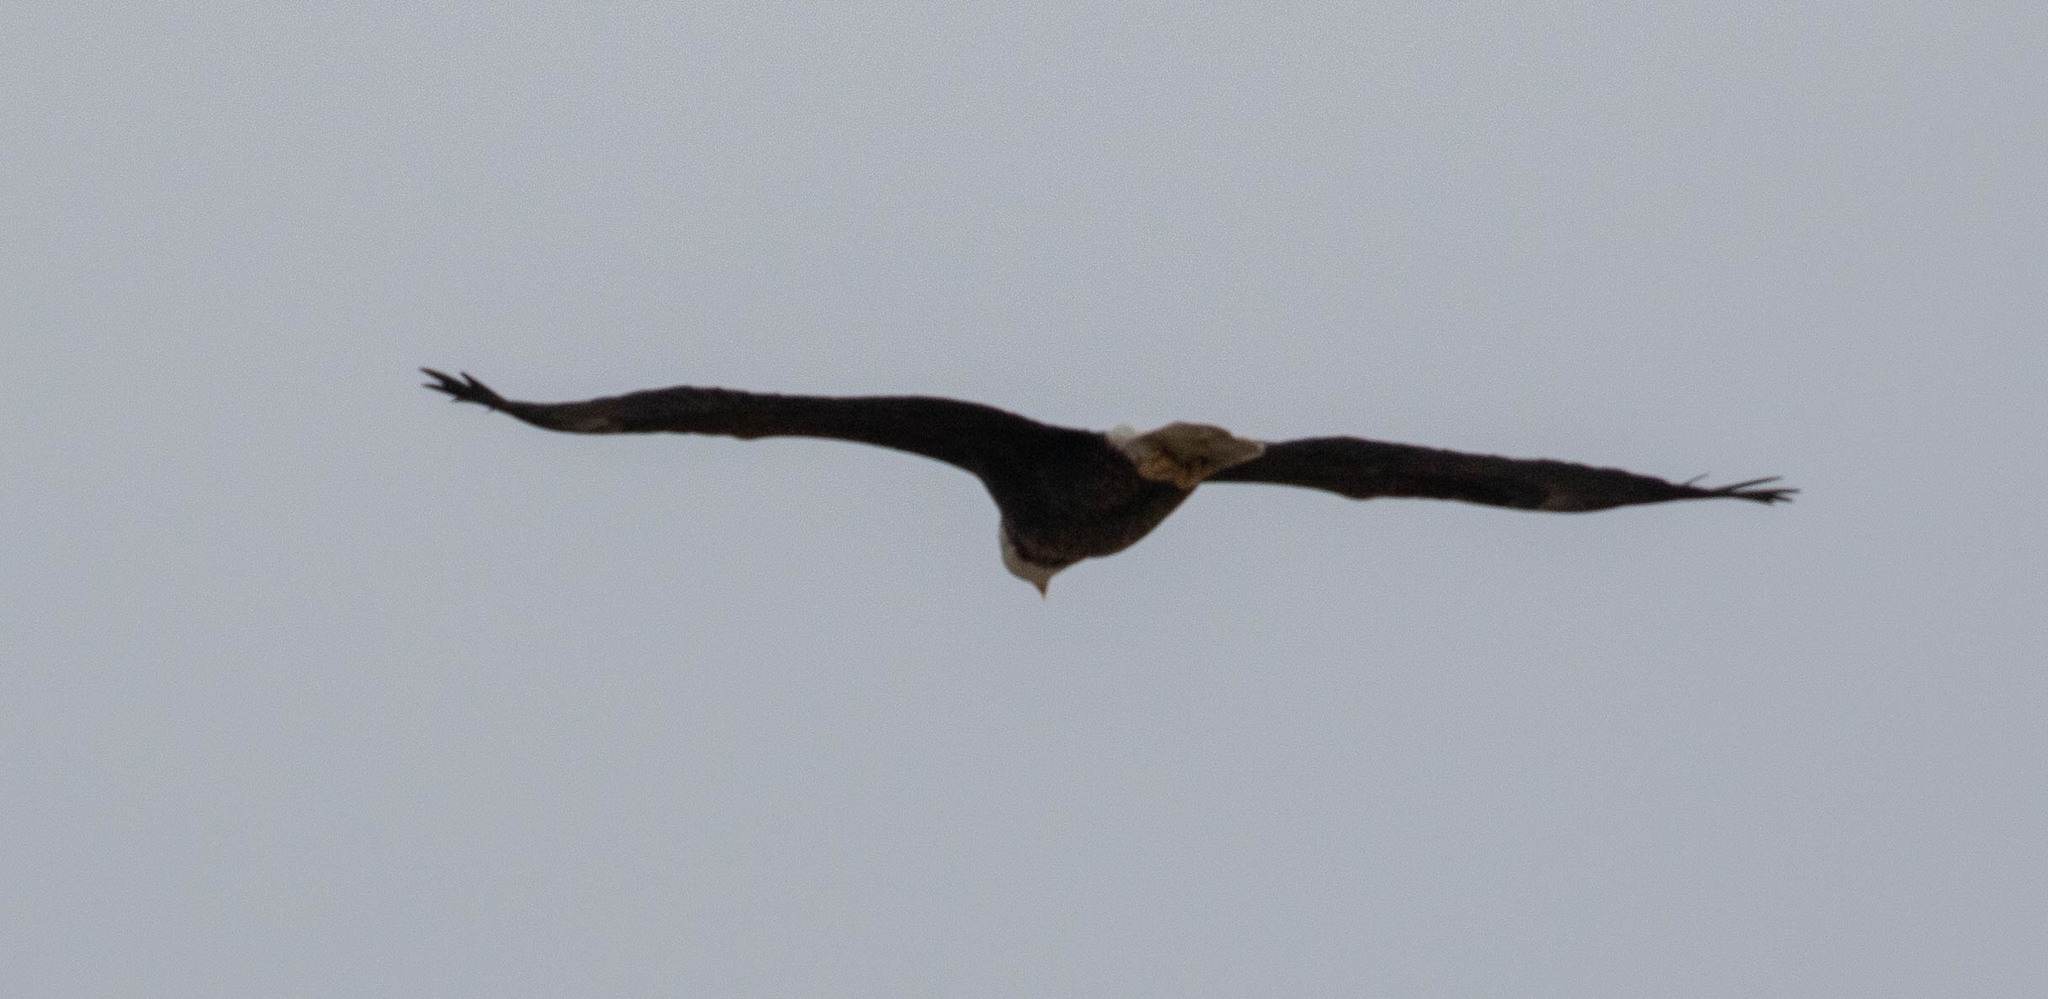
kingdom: Animalia
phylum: Chordata
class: Aves
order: Accipitriformes
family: Accipitridae
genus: Haliaeetus
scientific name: Haliaeetus leucocephalus
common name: Bald eagle
